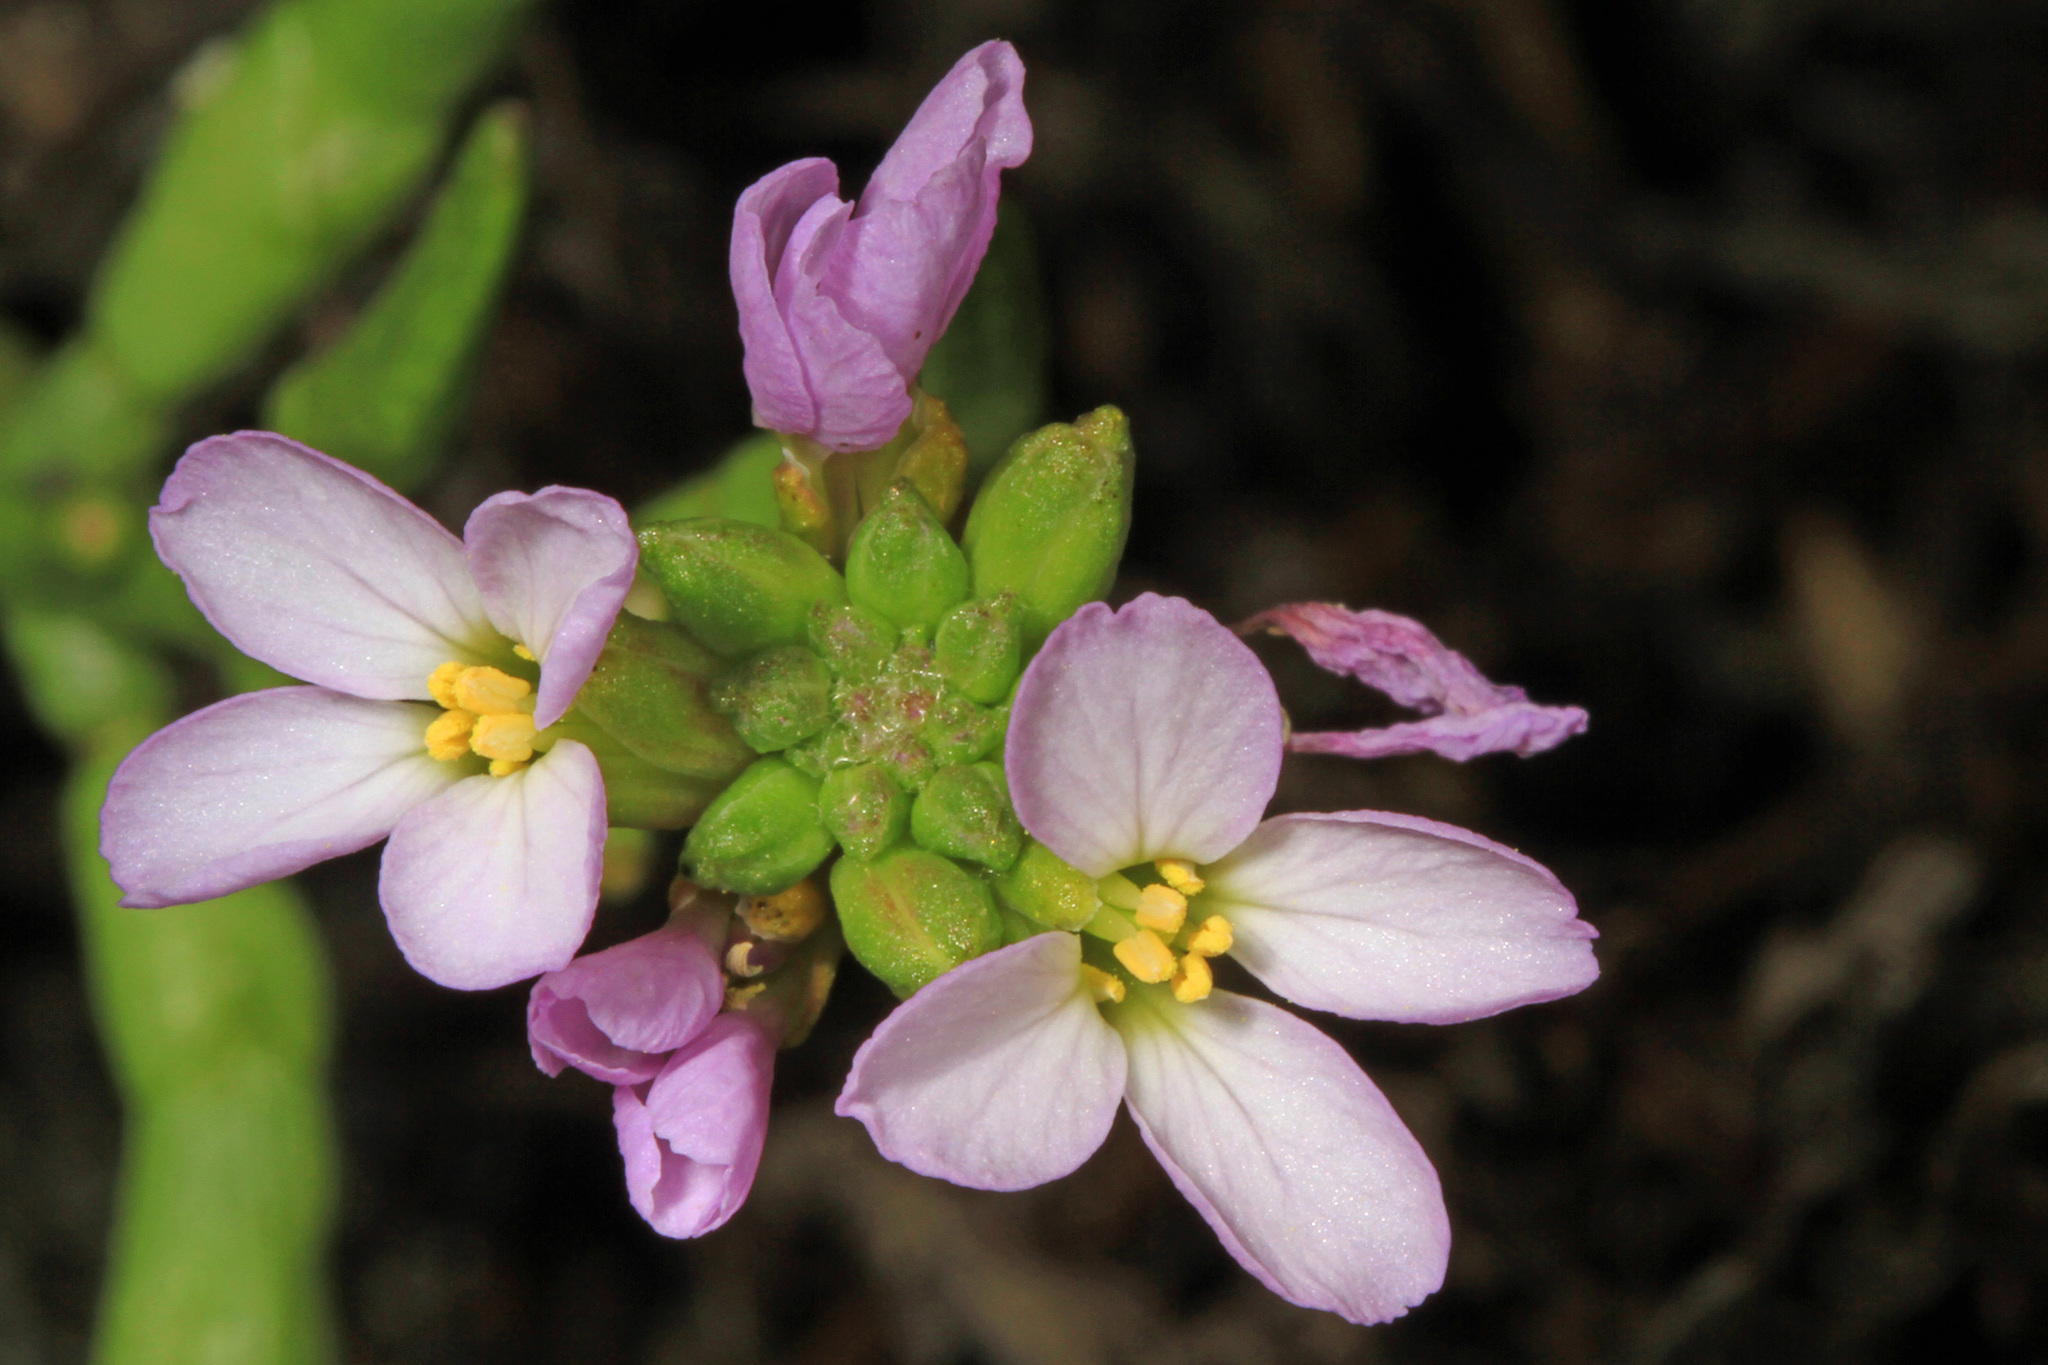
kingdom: Plantae
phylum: Tracheophyta
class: Magnoliopsida
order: Brassicales
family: Brassicaceae
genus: Cakile
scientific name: Cakile maritima
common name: Sea rocket
